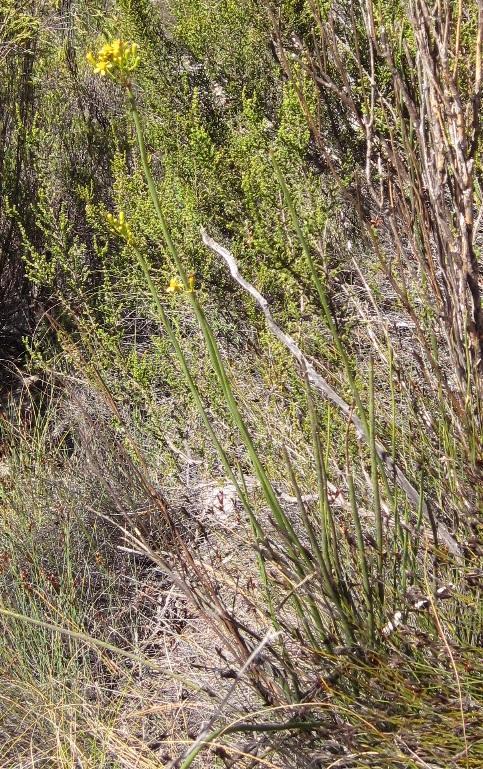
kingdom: Plantae
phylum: Tracheophyta
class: Magnoliopsida
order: Asterales
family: Asteraceae
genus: Senecio
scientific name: Senecio junceus
